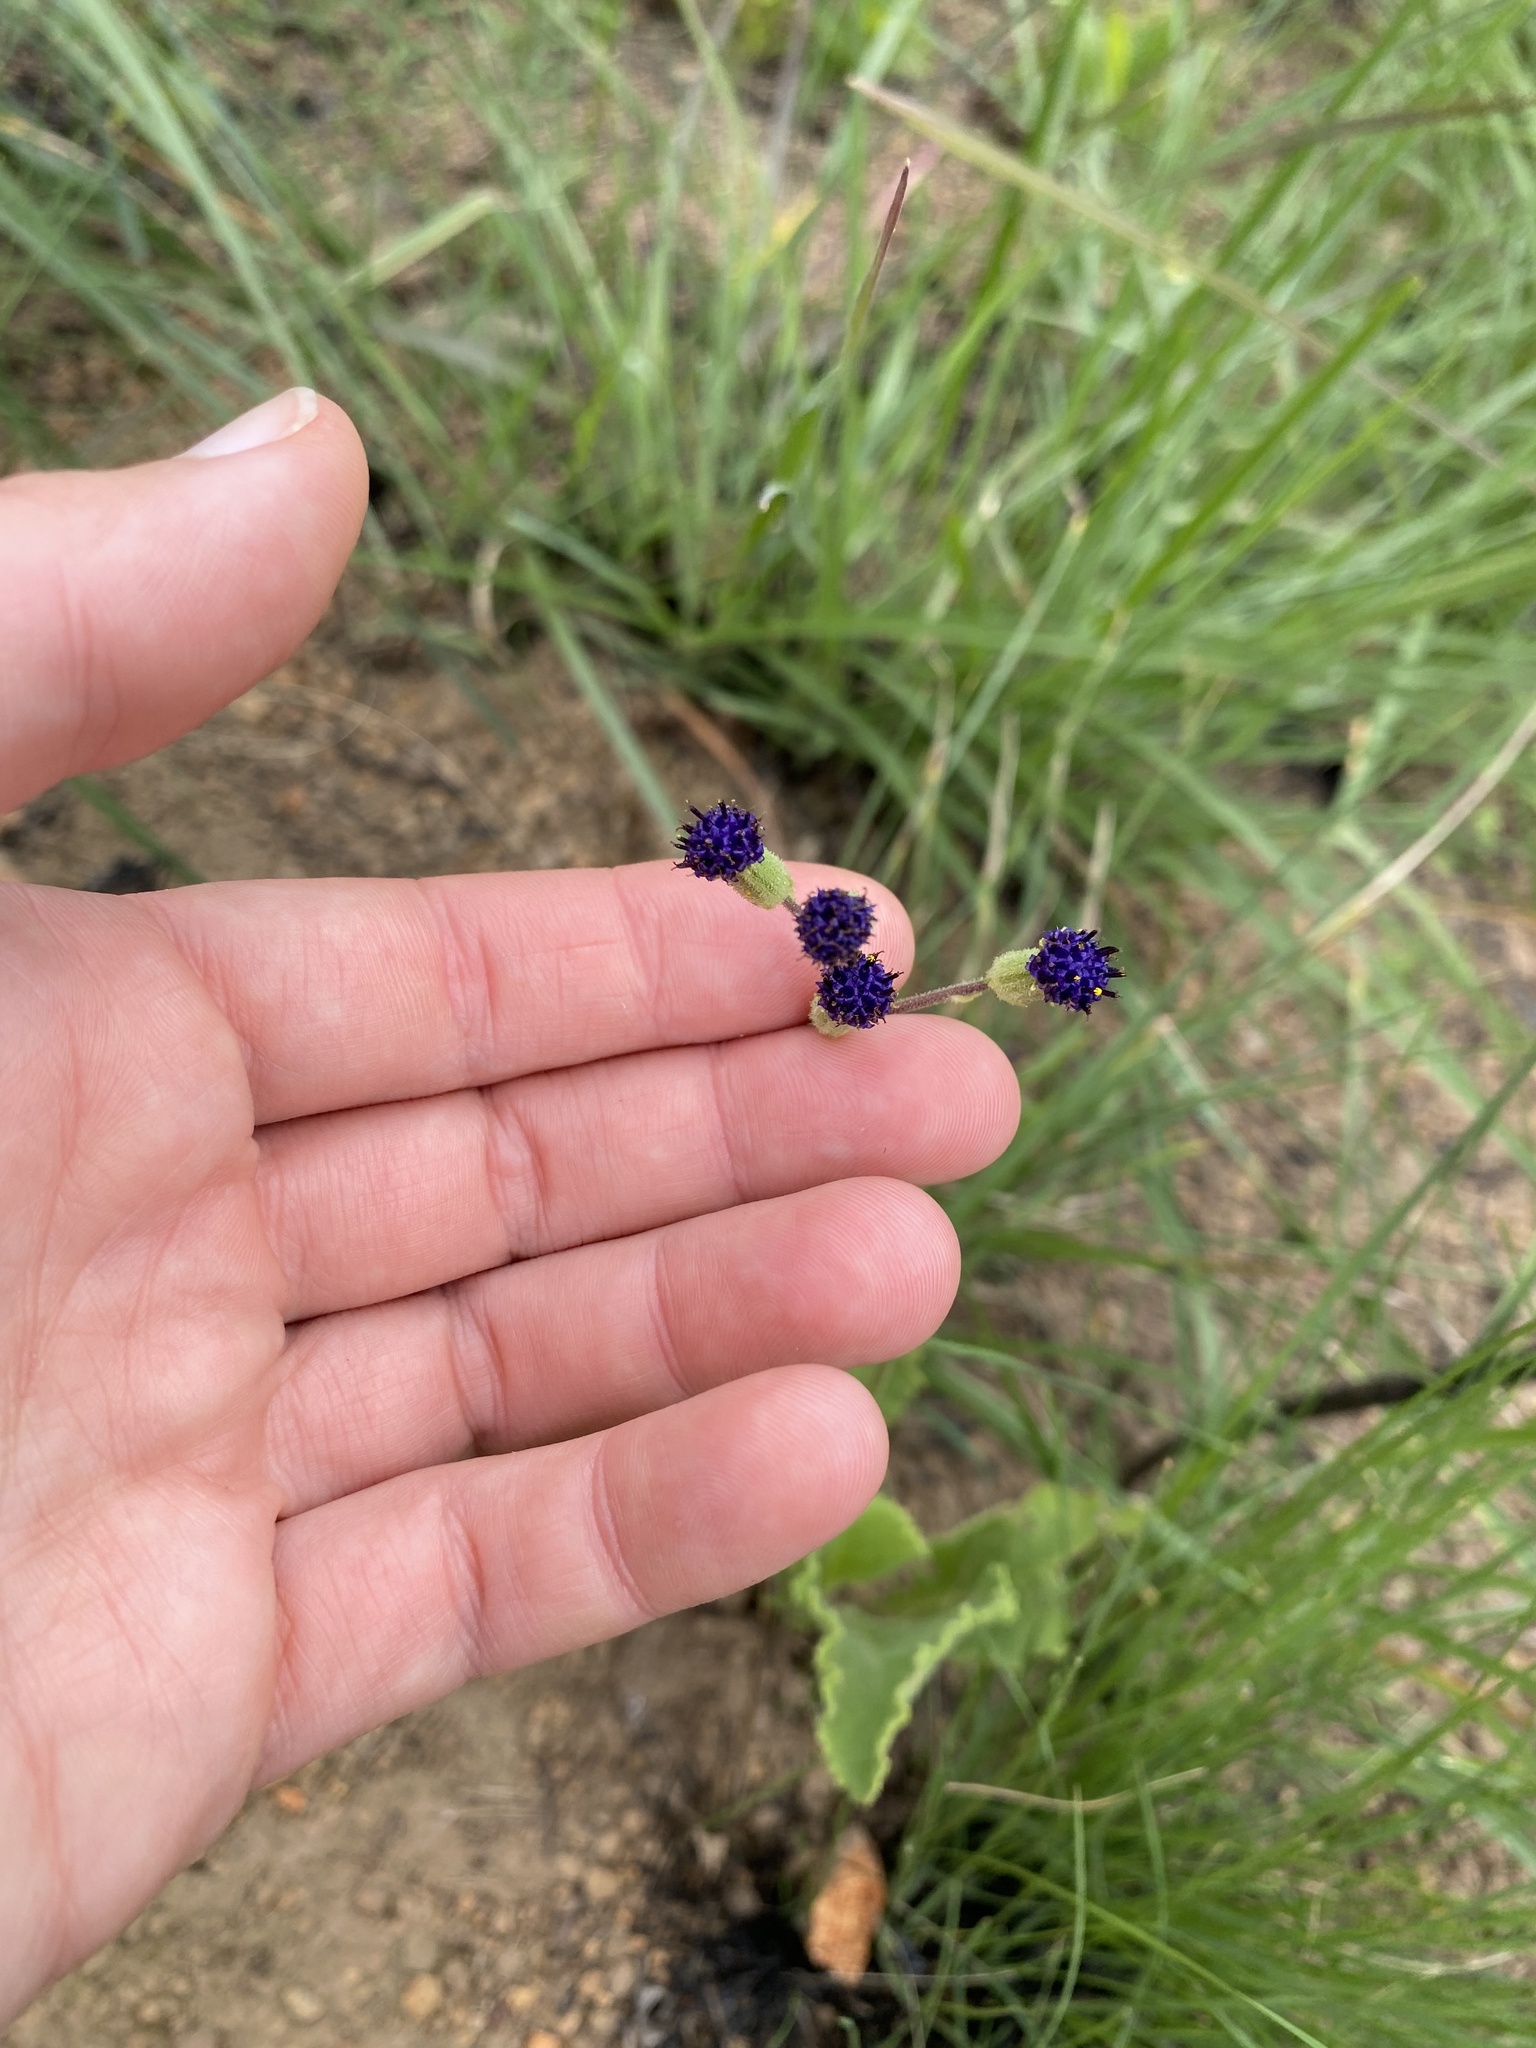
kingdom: Plantae
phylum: Tracheophyta
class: Magnoliopsida
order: Asterales
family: Asteraceae
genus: Senecio
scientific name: Senecio erubescens
